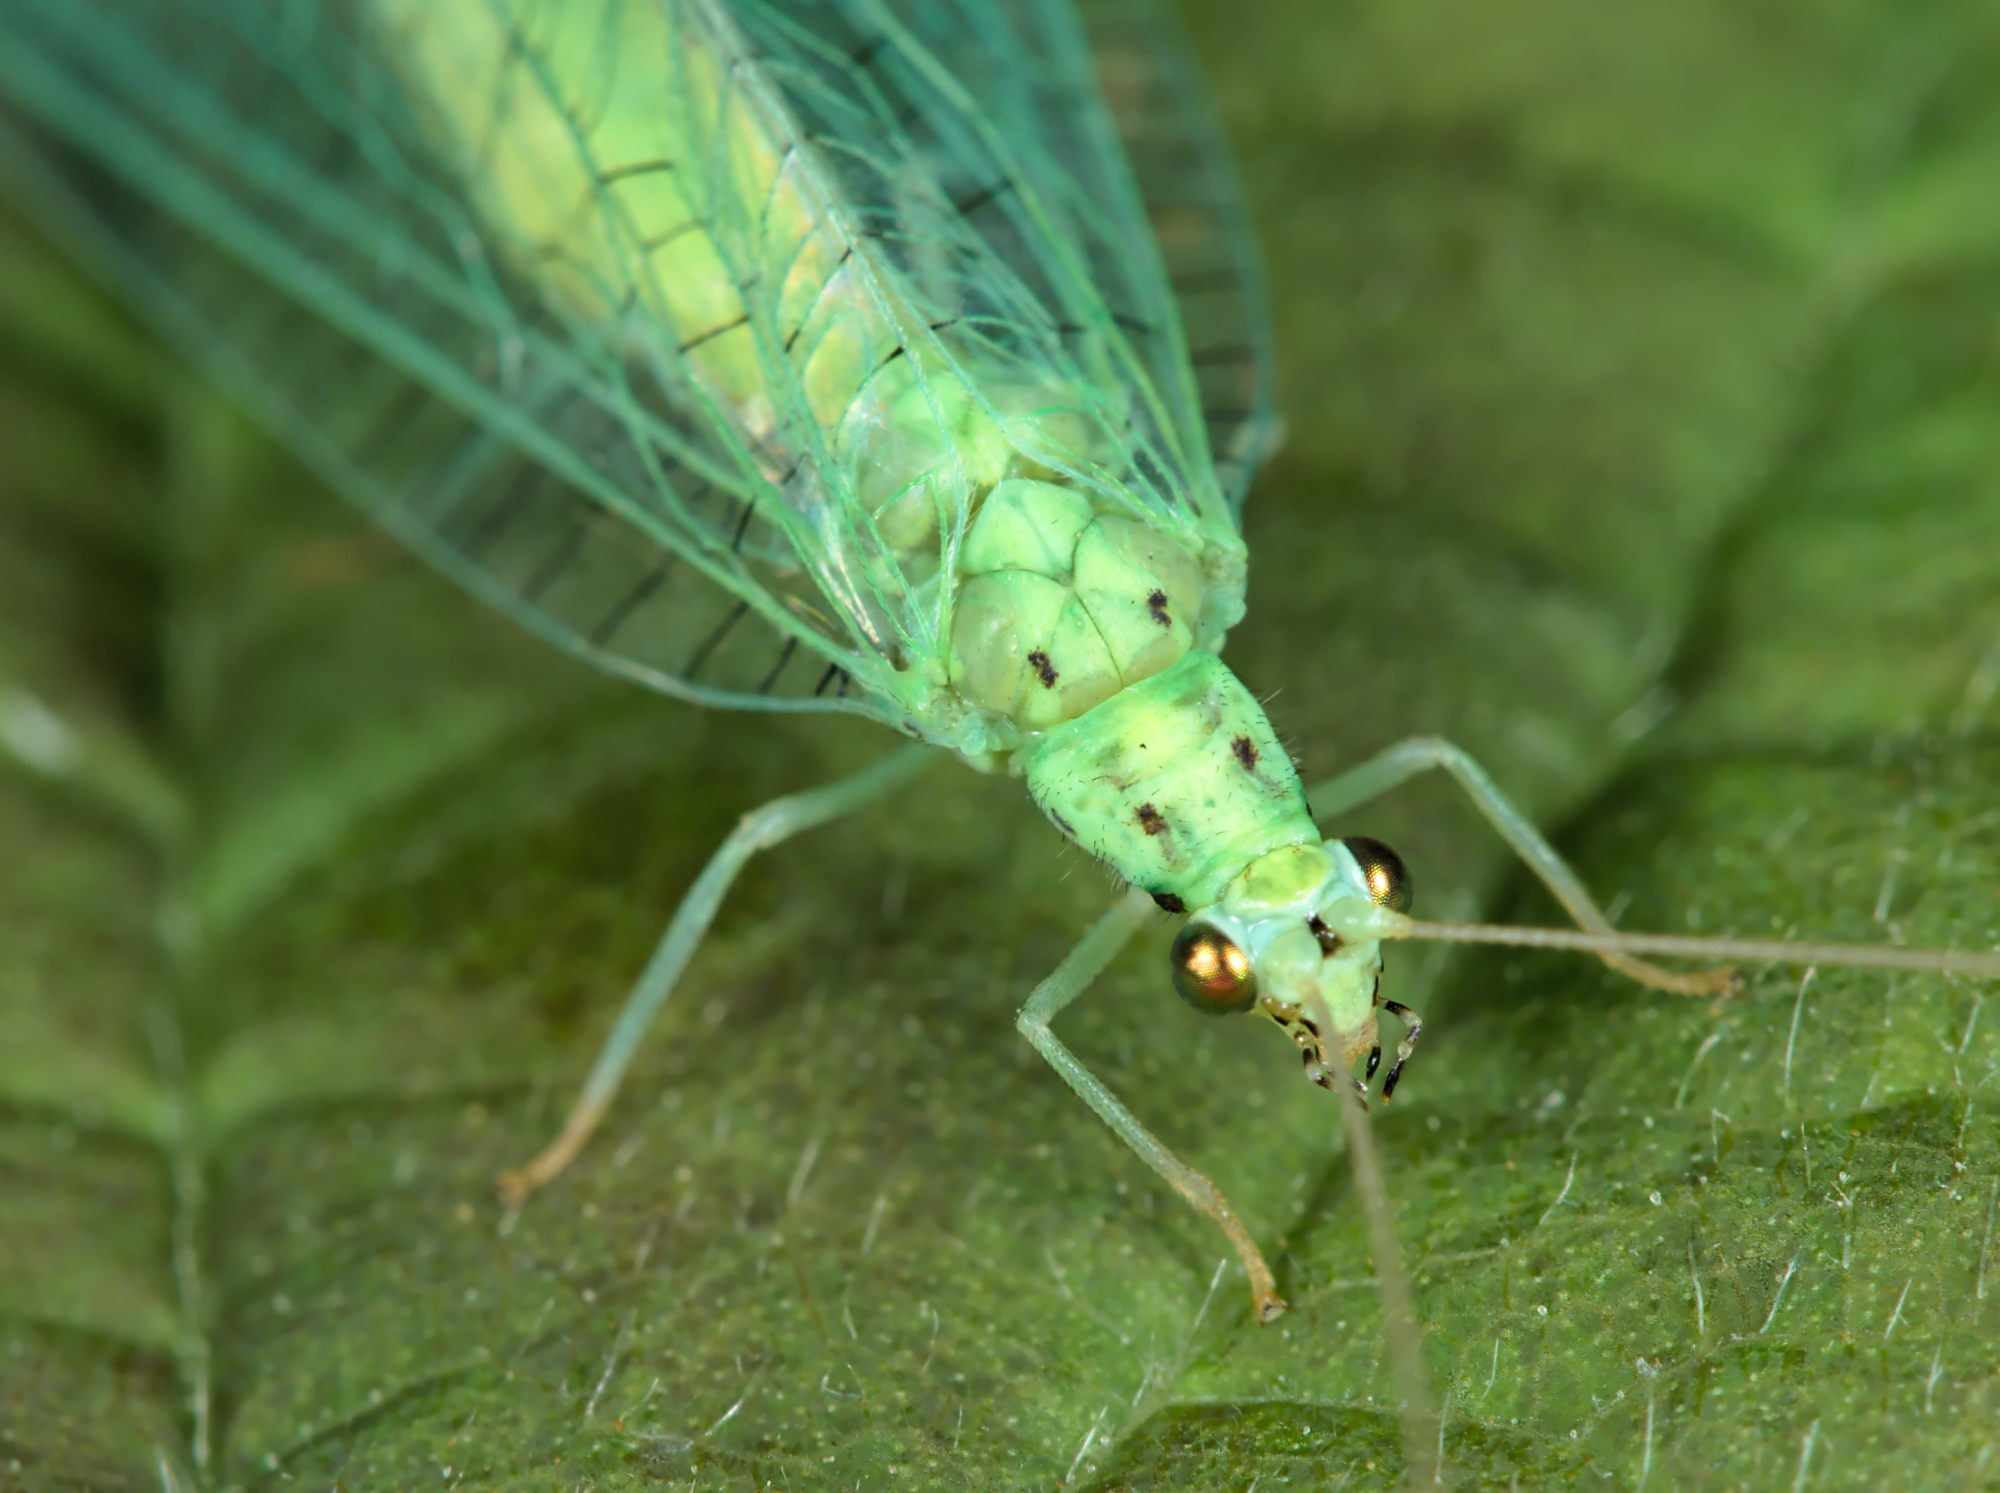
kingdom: Animalia
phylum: Arthropoda
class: Insecta
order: Neuroptera
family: Chrysopidae
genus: Pseudomallada
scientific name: Pseudomallada ventralis
